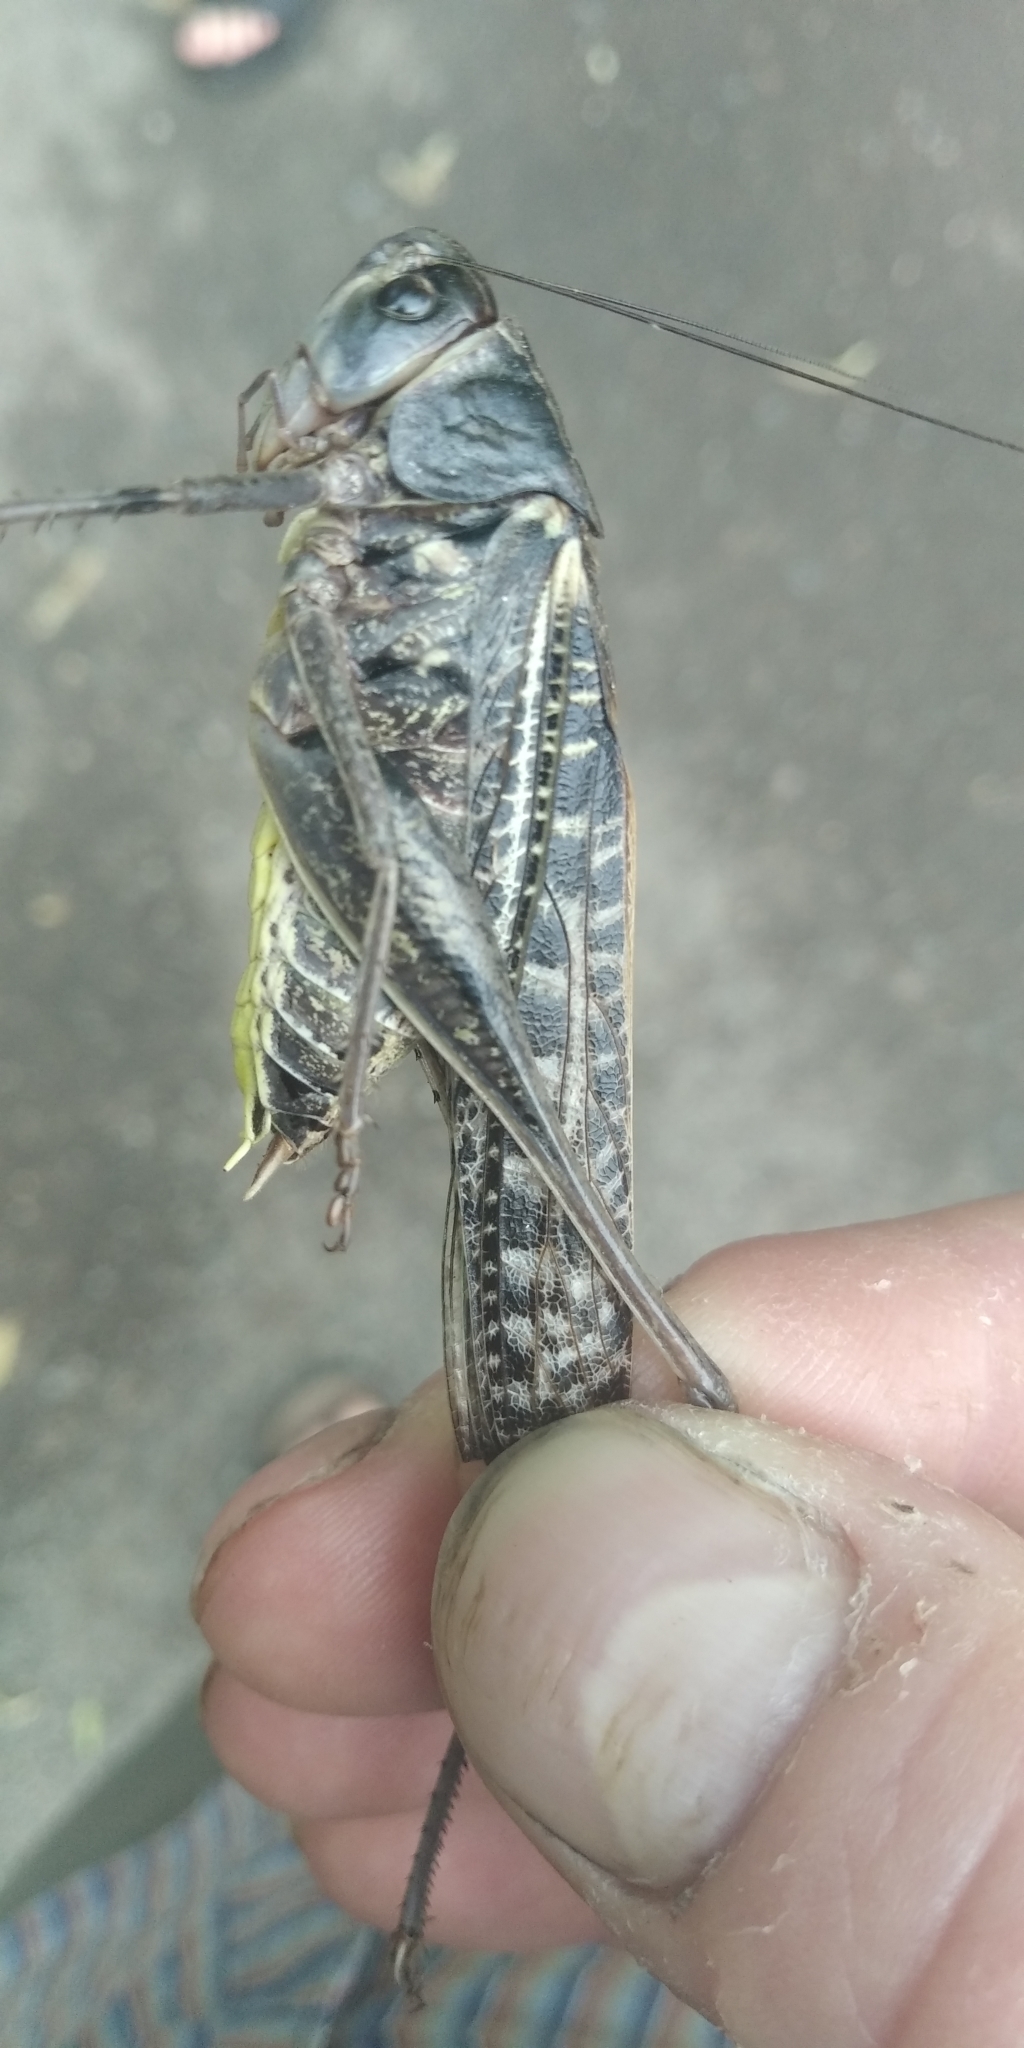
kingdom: Animalia
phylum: Arthropoda
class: Insecta
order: Orthoptera
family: Tettigoniidae
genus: Decticus
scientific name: Decticus verrucivorus
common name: Wart-biter
